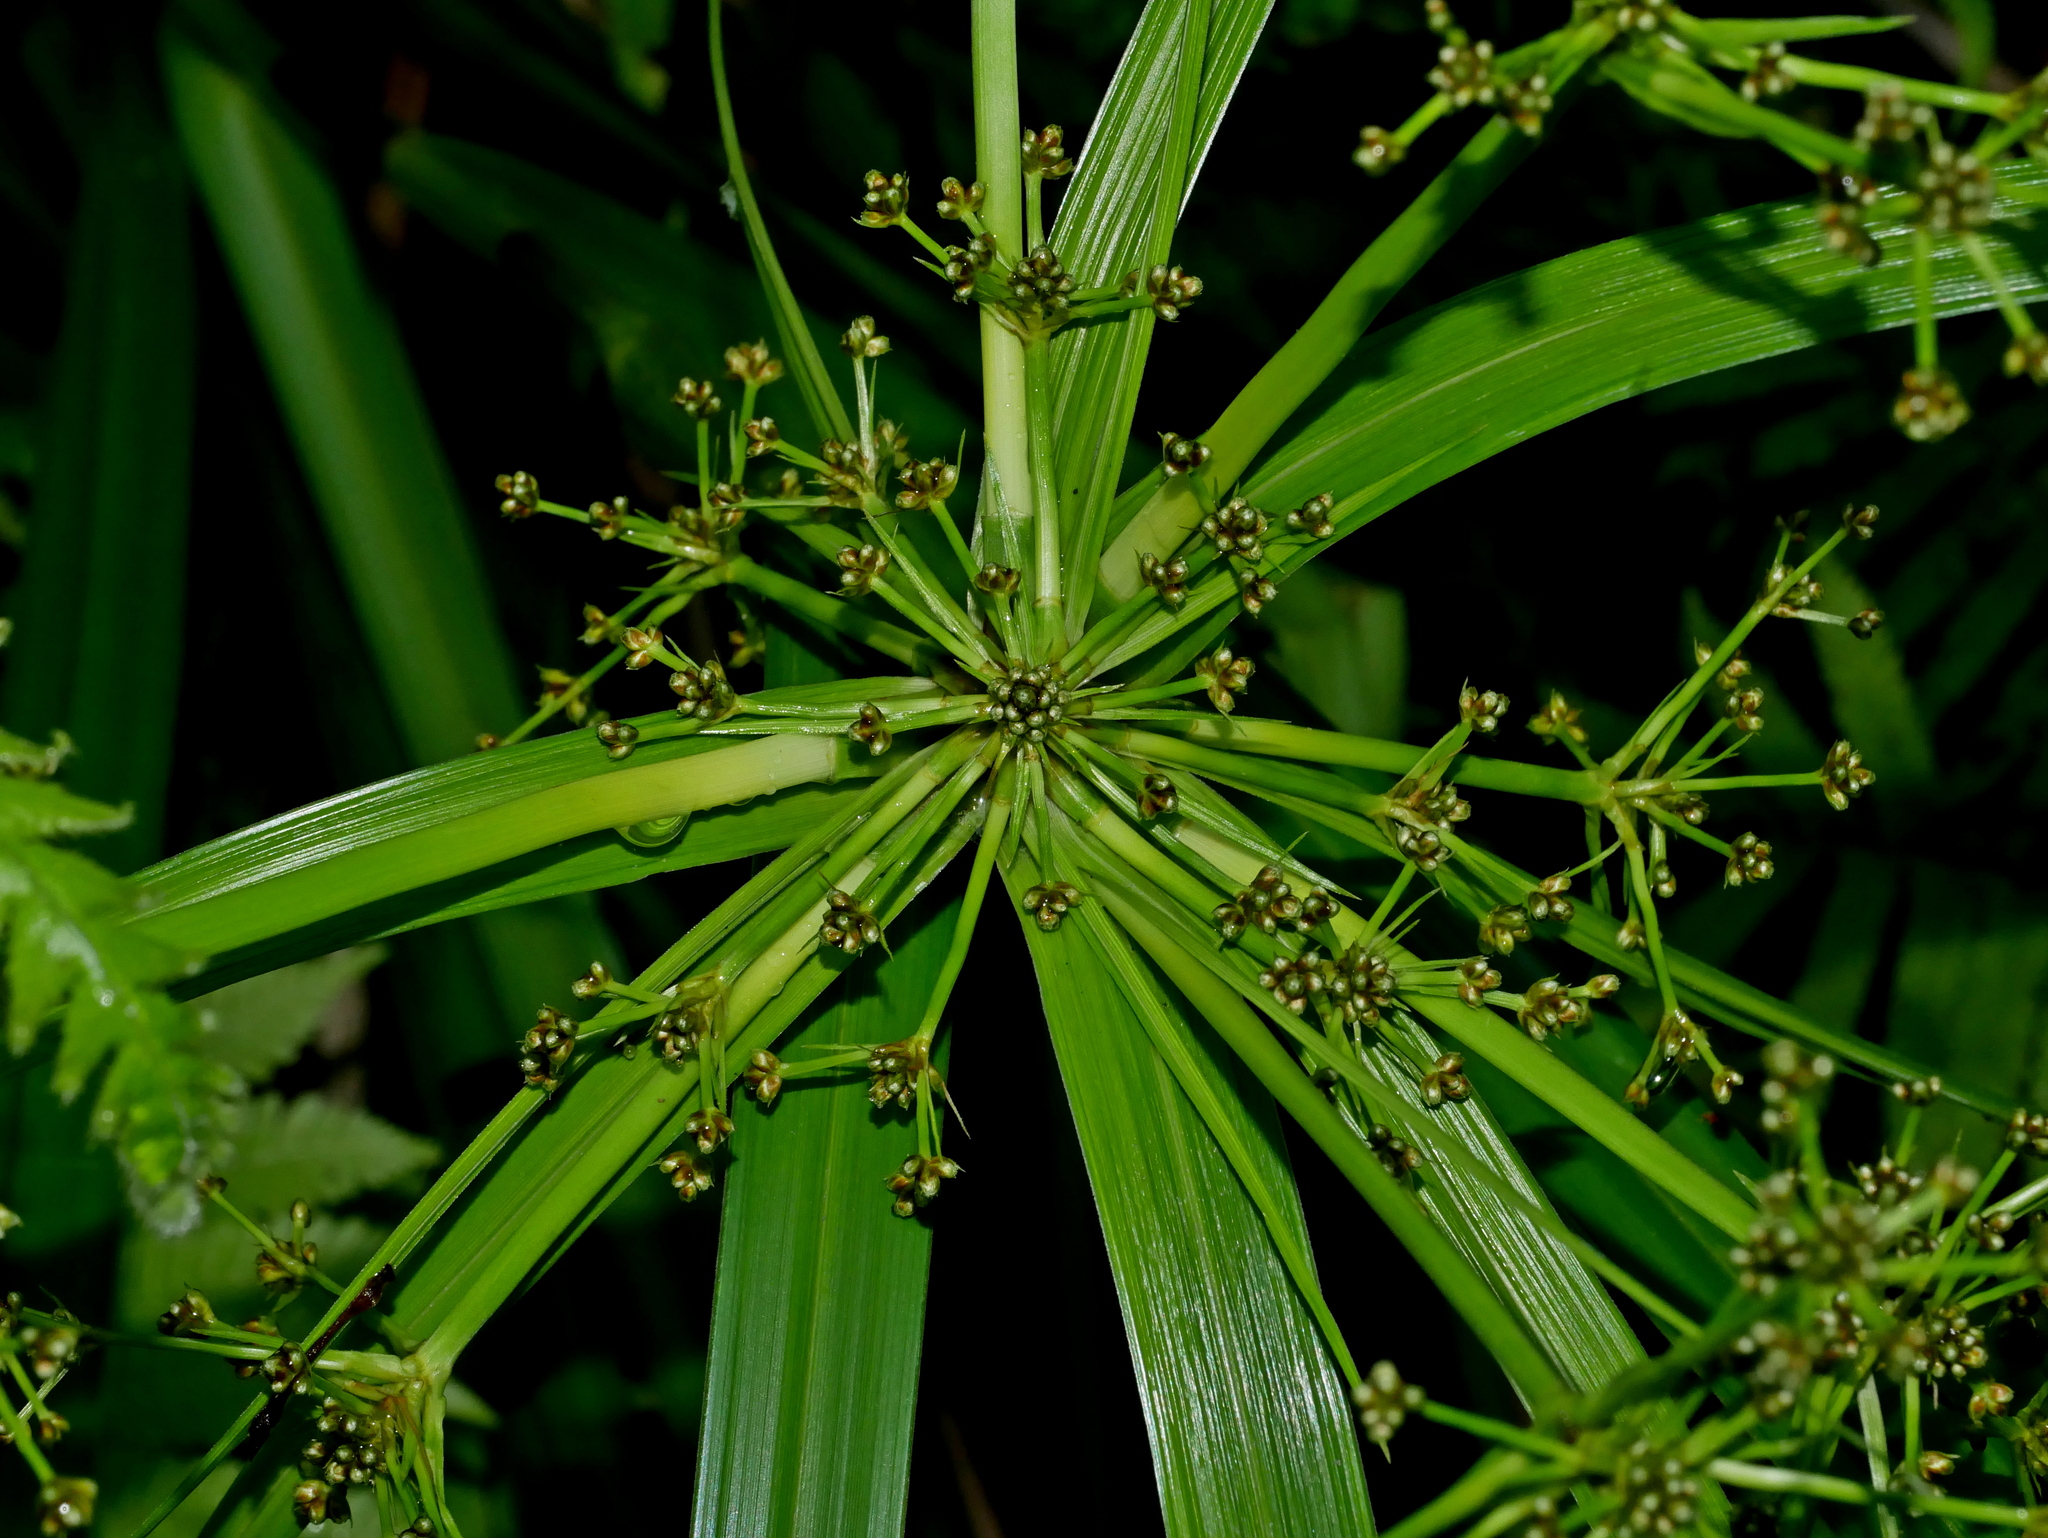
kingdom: Plantae
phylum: Tracheophyta
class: Liliopsida
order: Poales
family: Cyperaceae
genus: Scirpus
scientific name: Scirpus ternatanus
